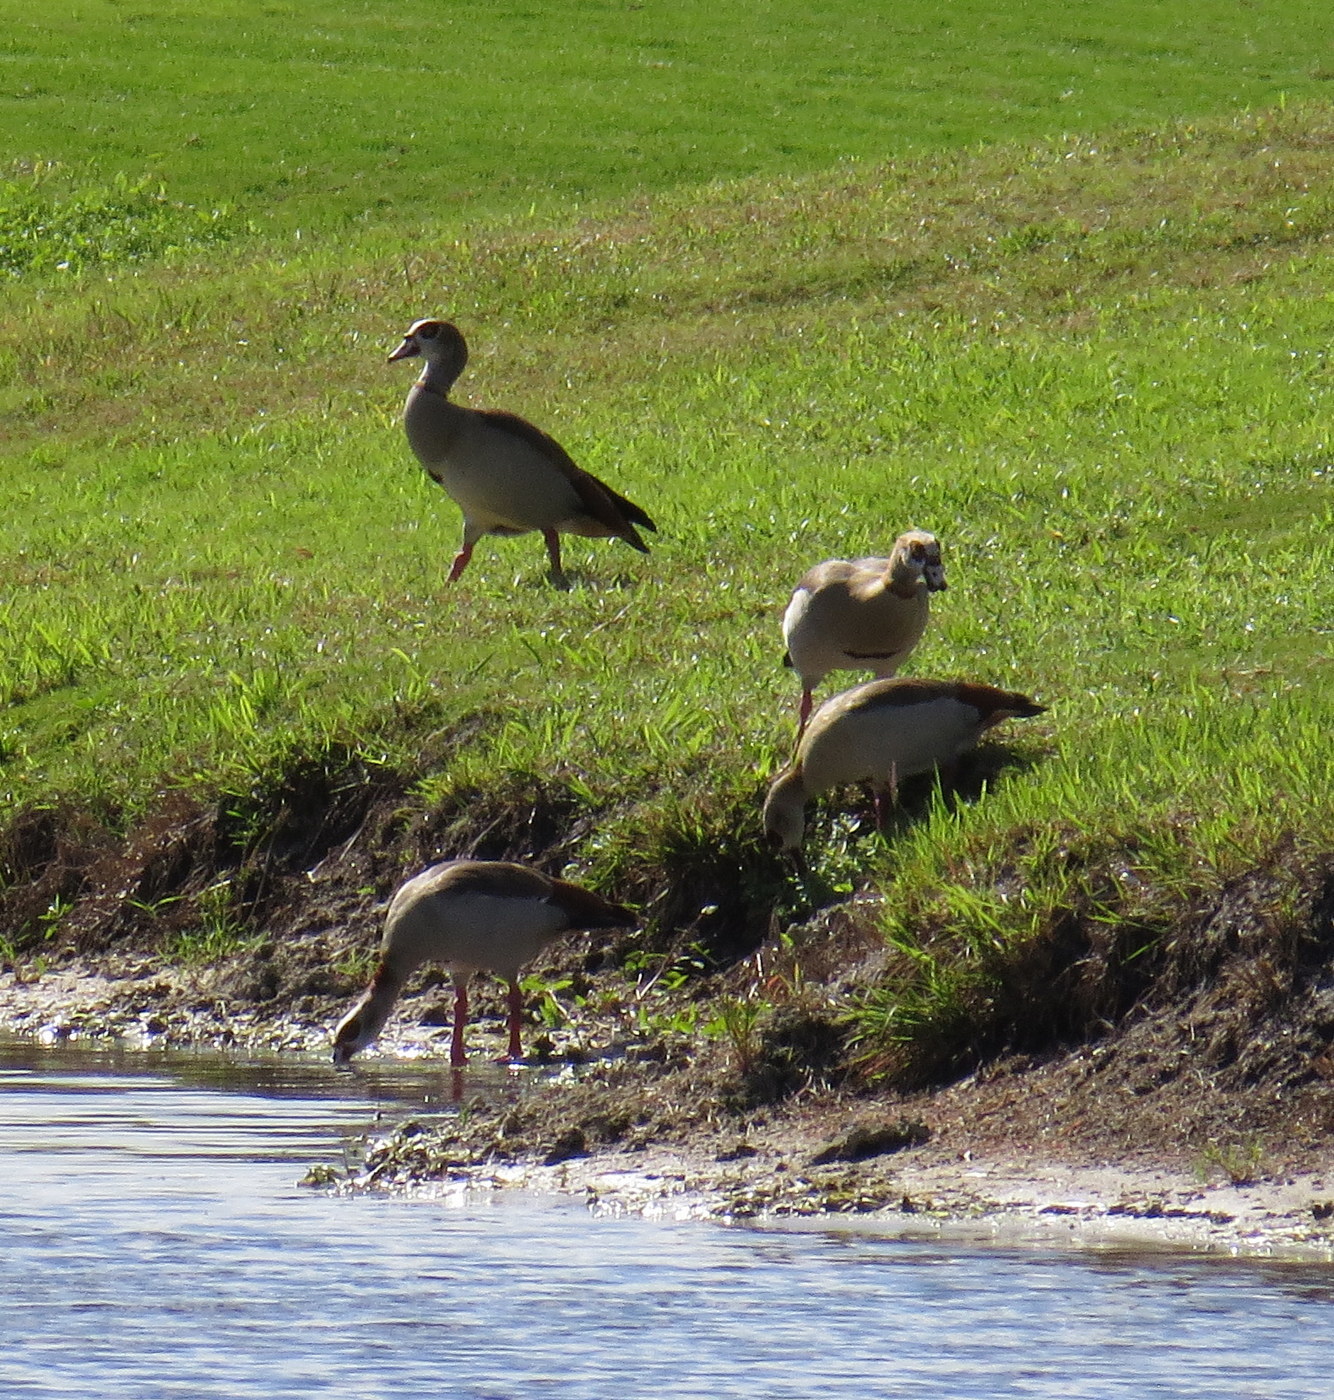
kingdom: Animalia
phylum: Chordata
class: Aves
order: Anseriformes
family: Anatidae
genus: Alopochen
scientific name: Alopochen aegyptiaca
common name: Egyptian goose
